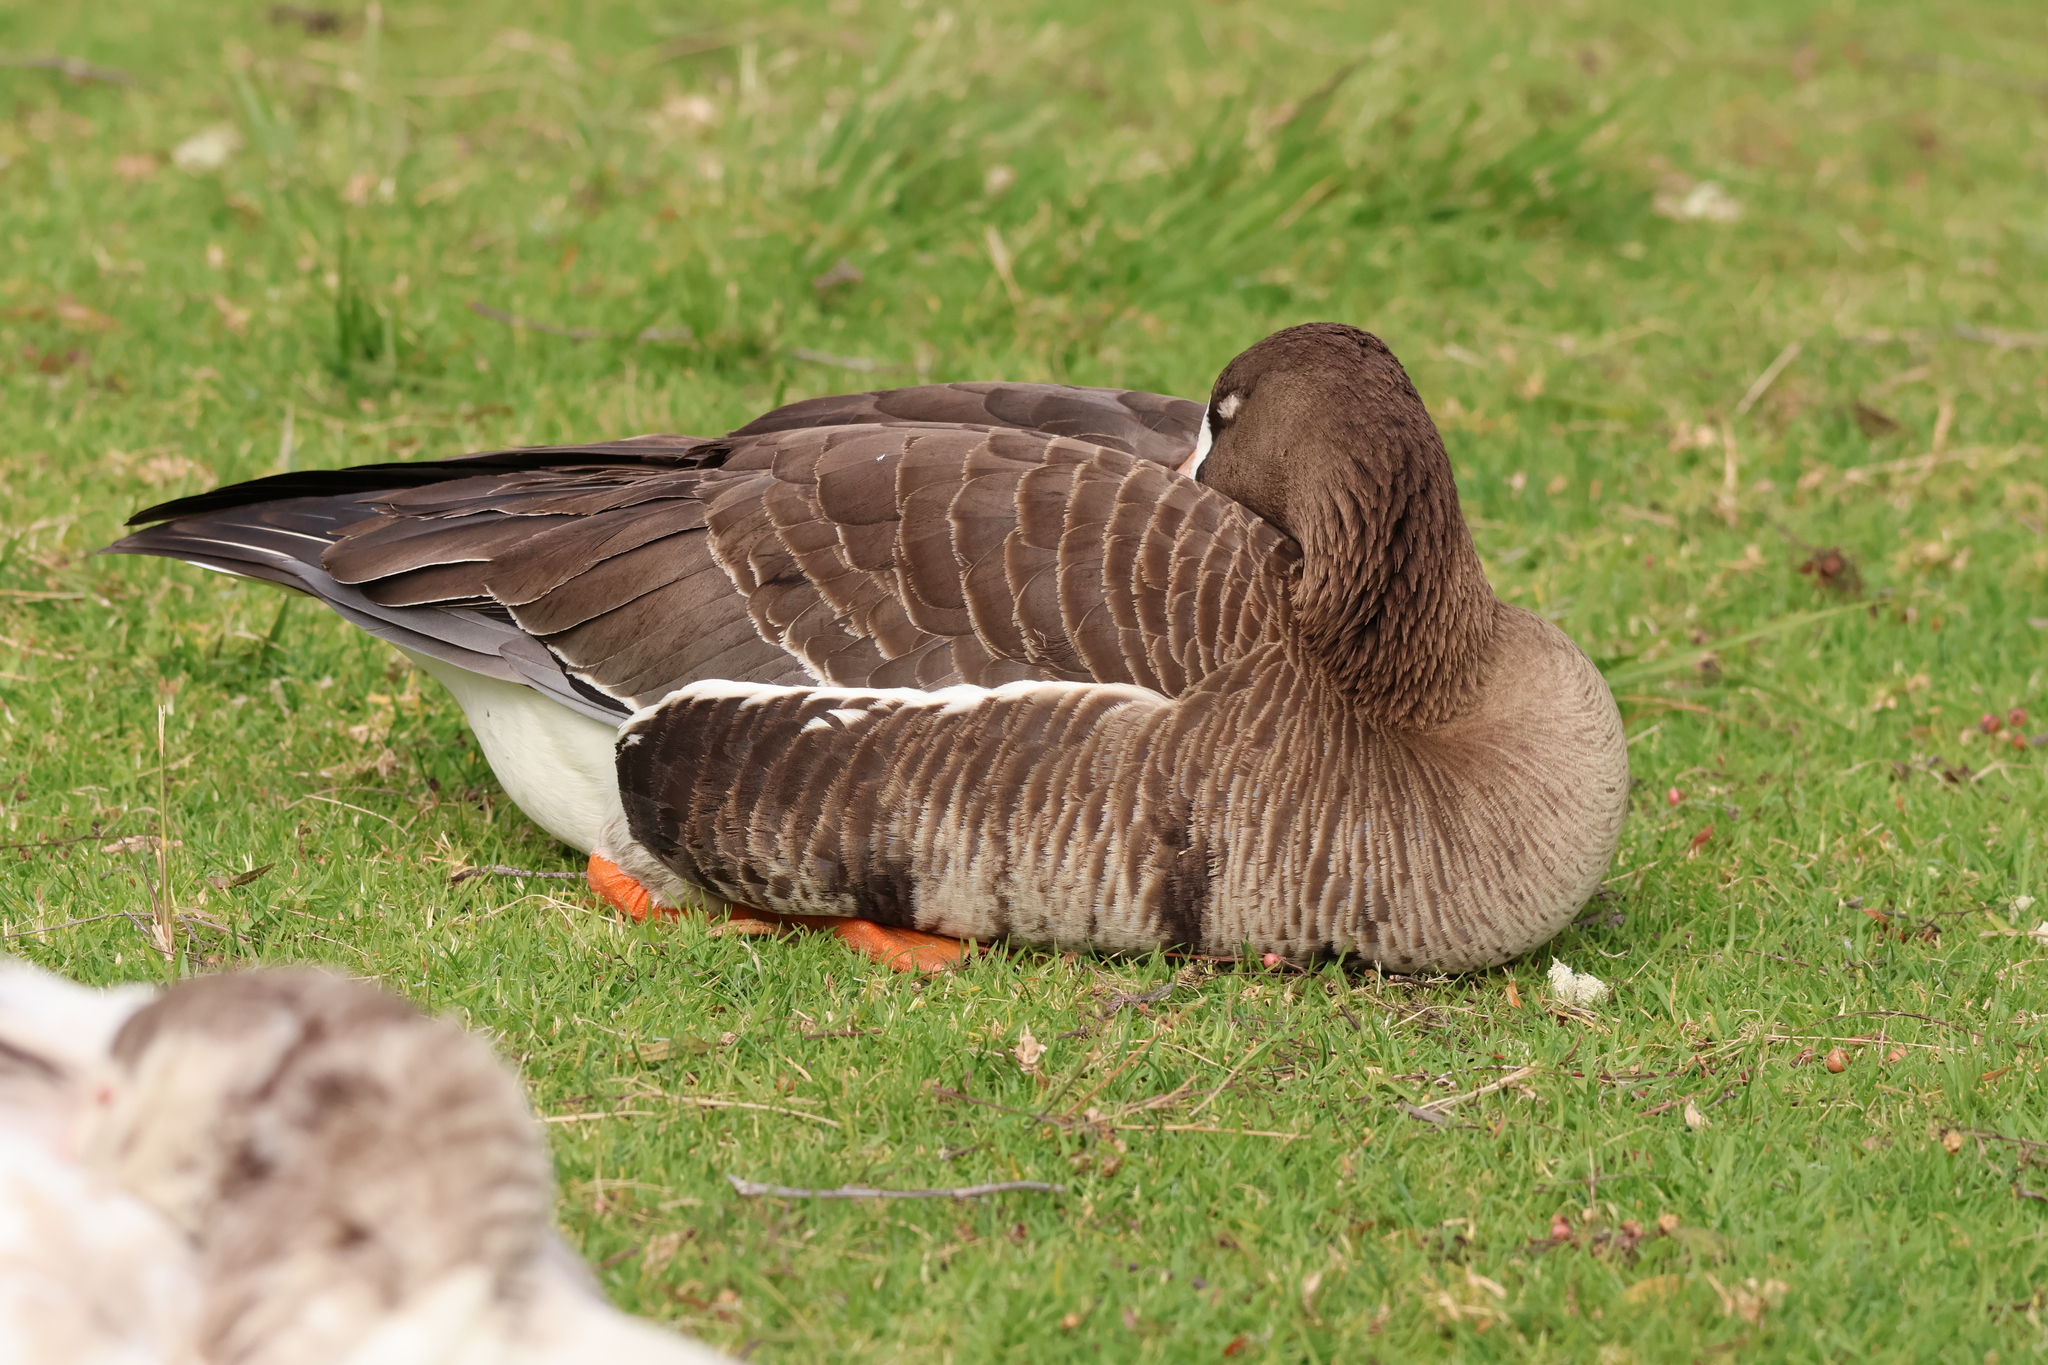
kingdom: Animalia
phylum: Chordata
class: Aves
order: Anseriformes
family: Anatidae
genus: Anser
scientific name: Anser albifrons
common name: Greater white-fronted goose
